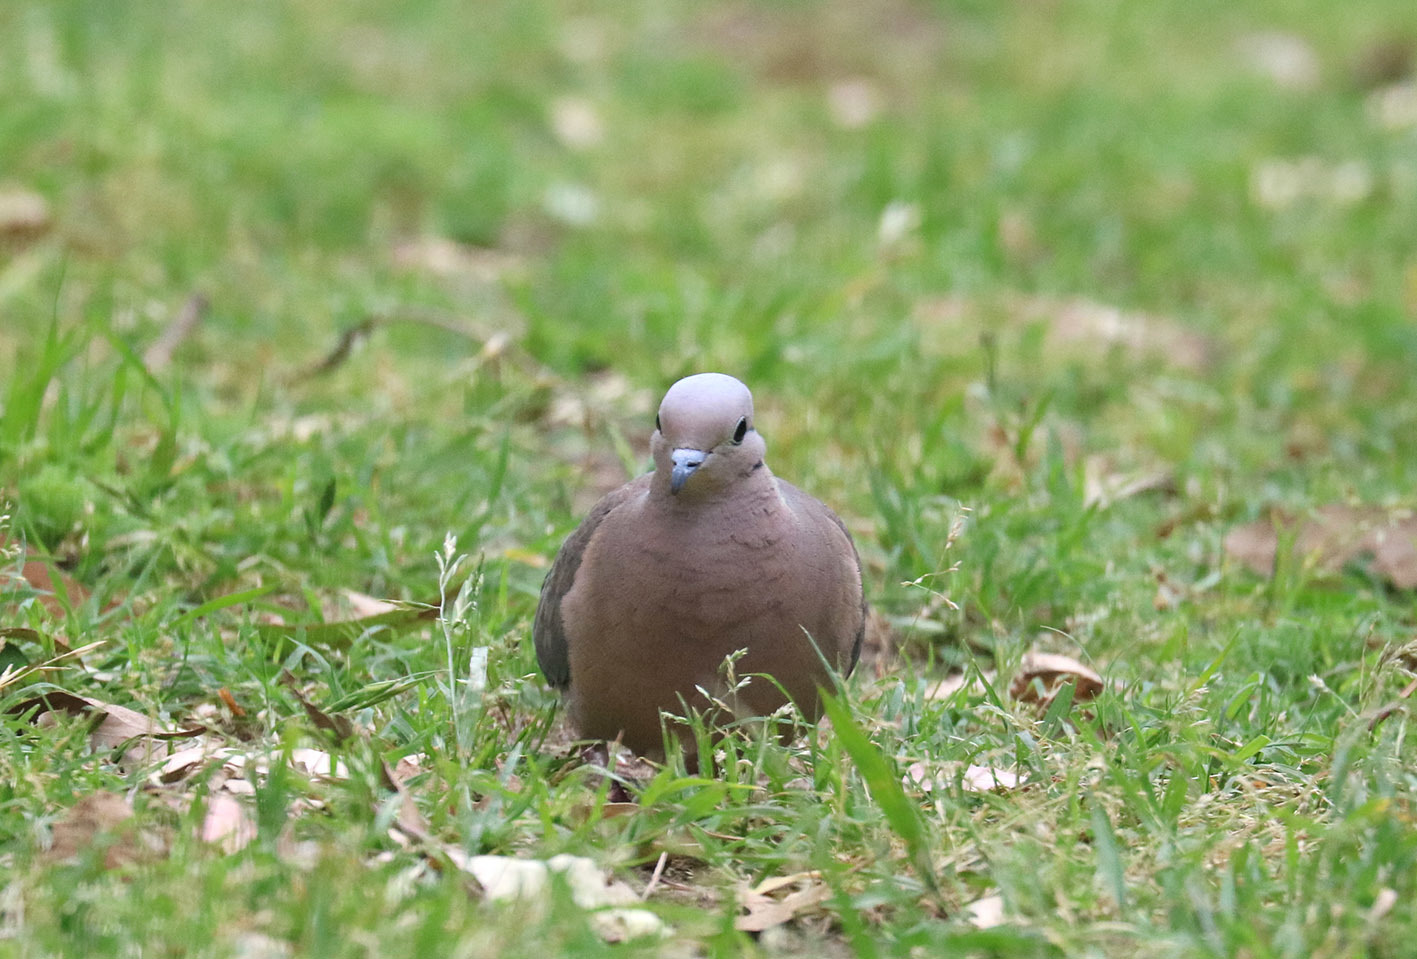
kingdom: Animalia
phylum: Chordata
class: Aves
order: Columbiformes
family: Columbidae
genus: Zenaida
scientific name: Zenaida auriculata
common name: Eared dove
